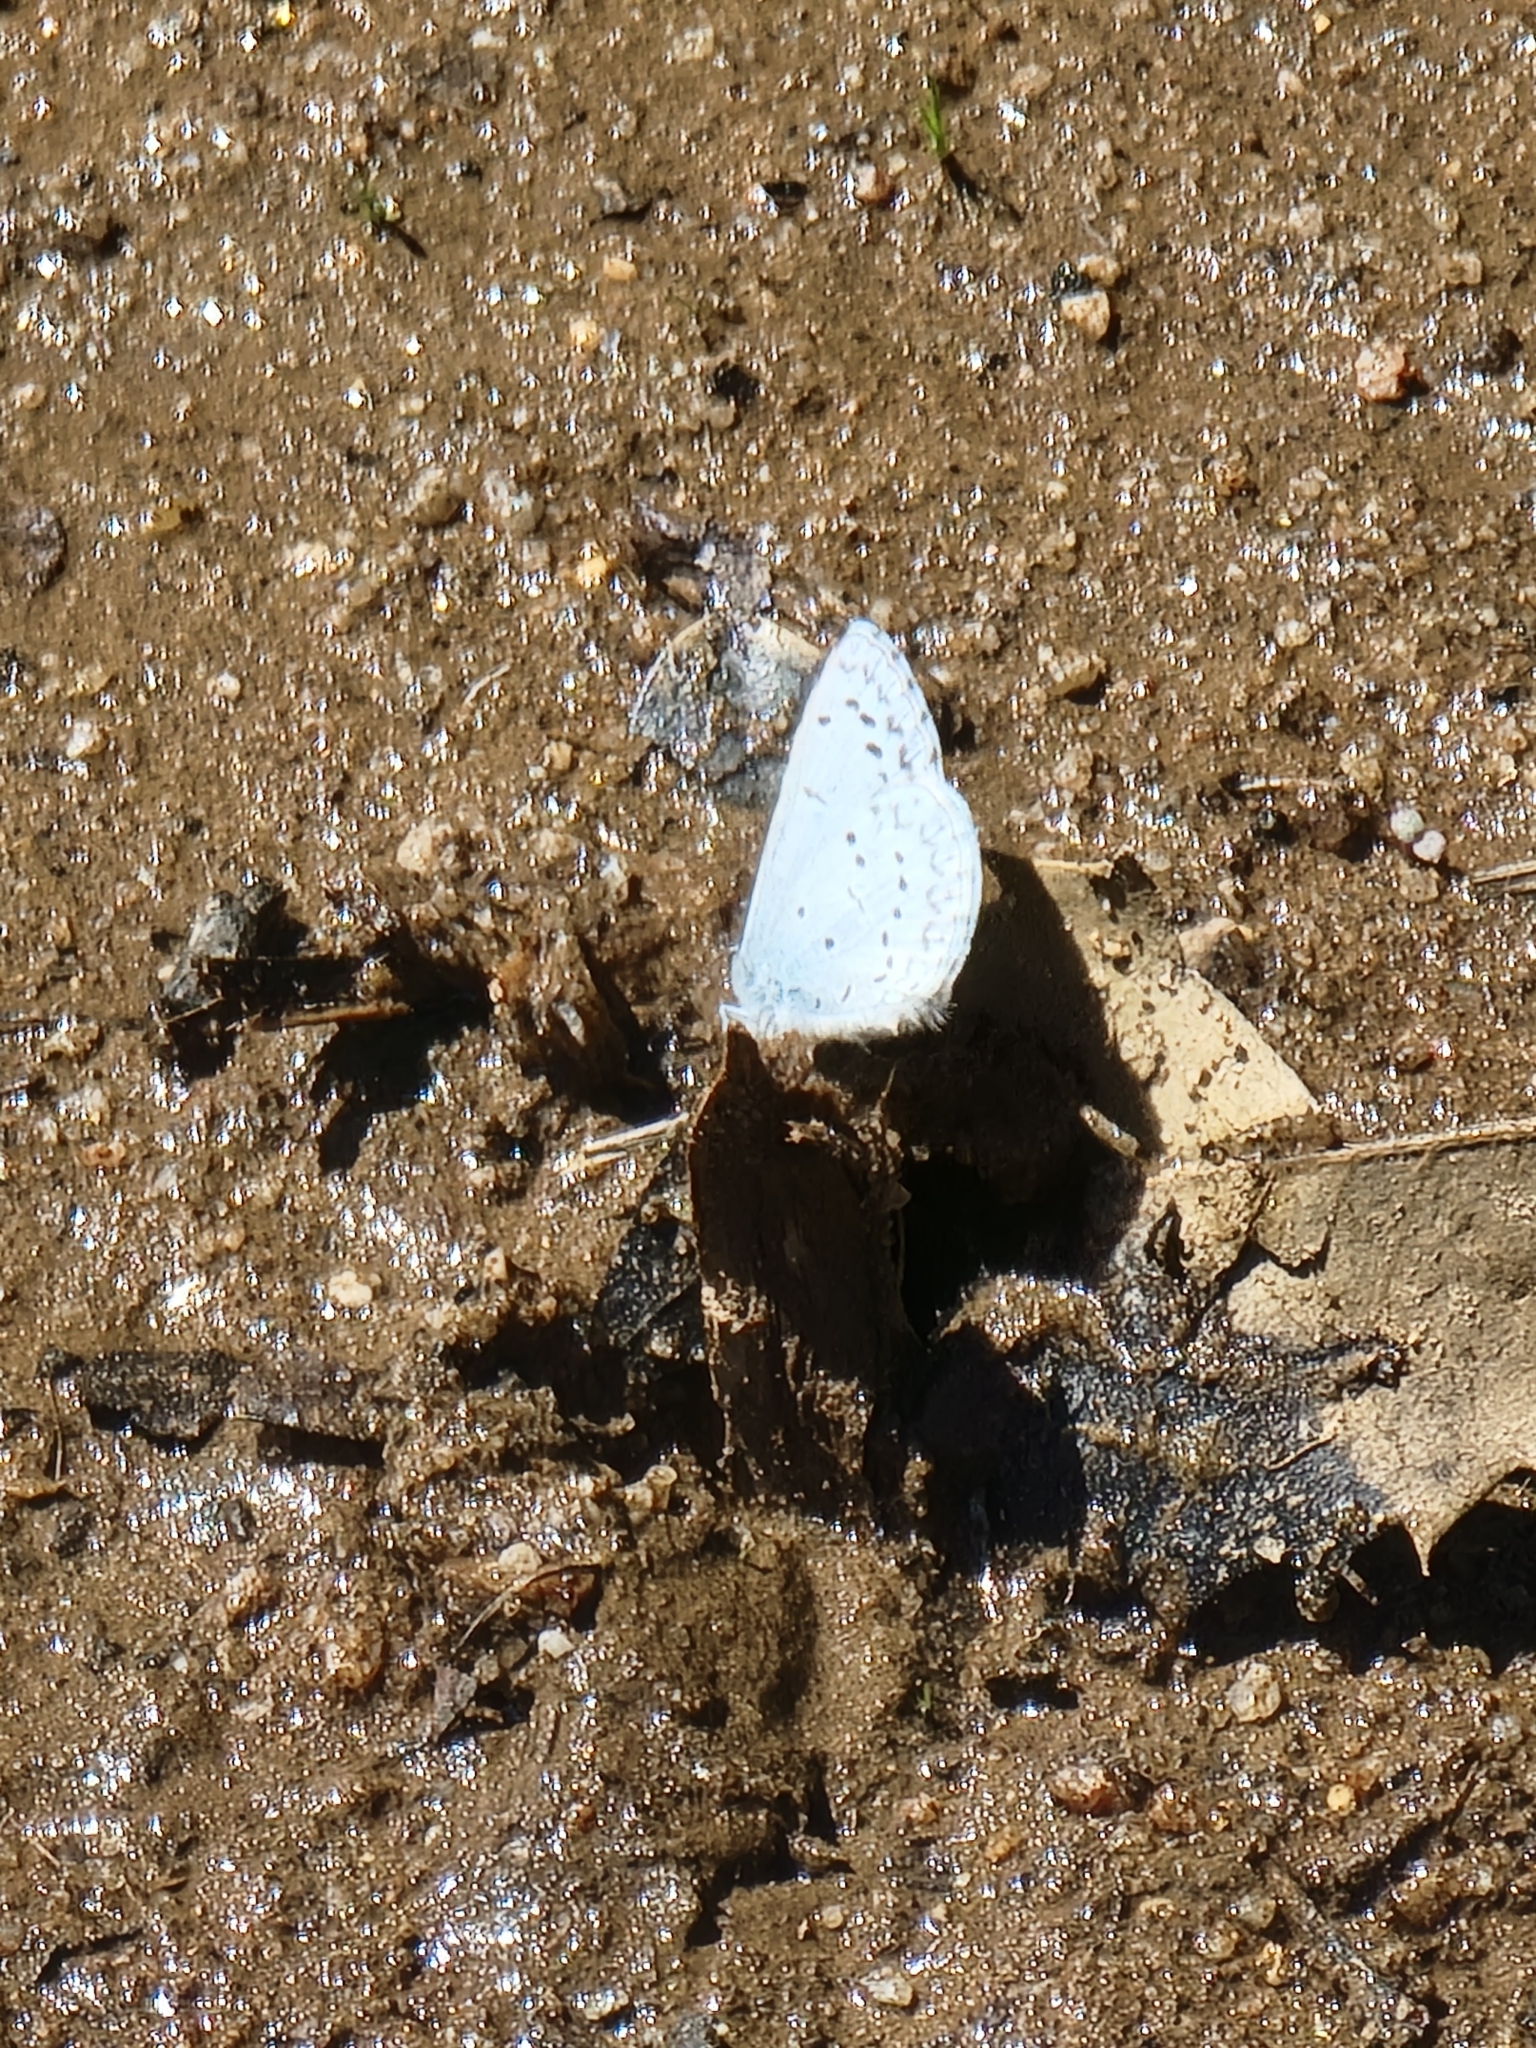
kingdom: Animalia
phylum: Arthropoda
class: Insecta
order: Lepidoptera
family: Lycaenidae
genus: Celastrina
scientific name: Celastrina ladon
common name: Spring azure
